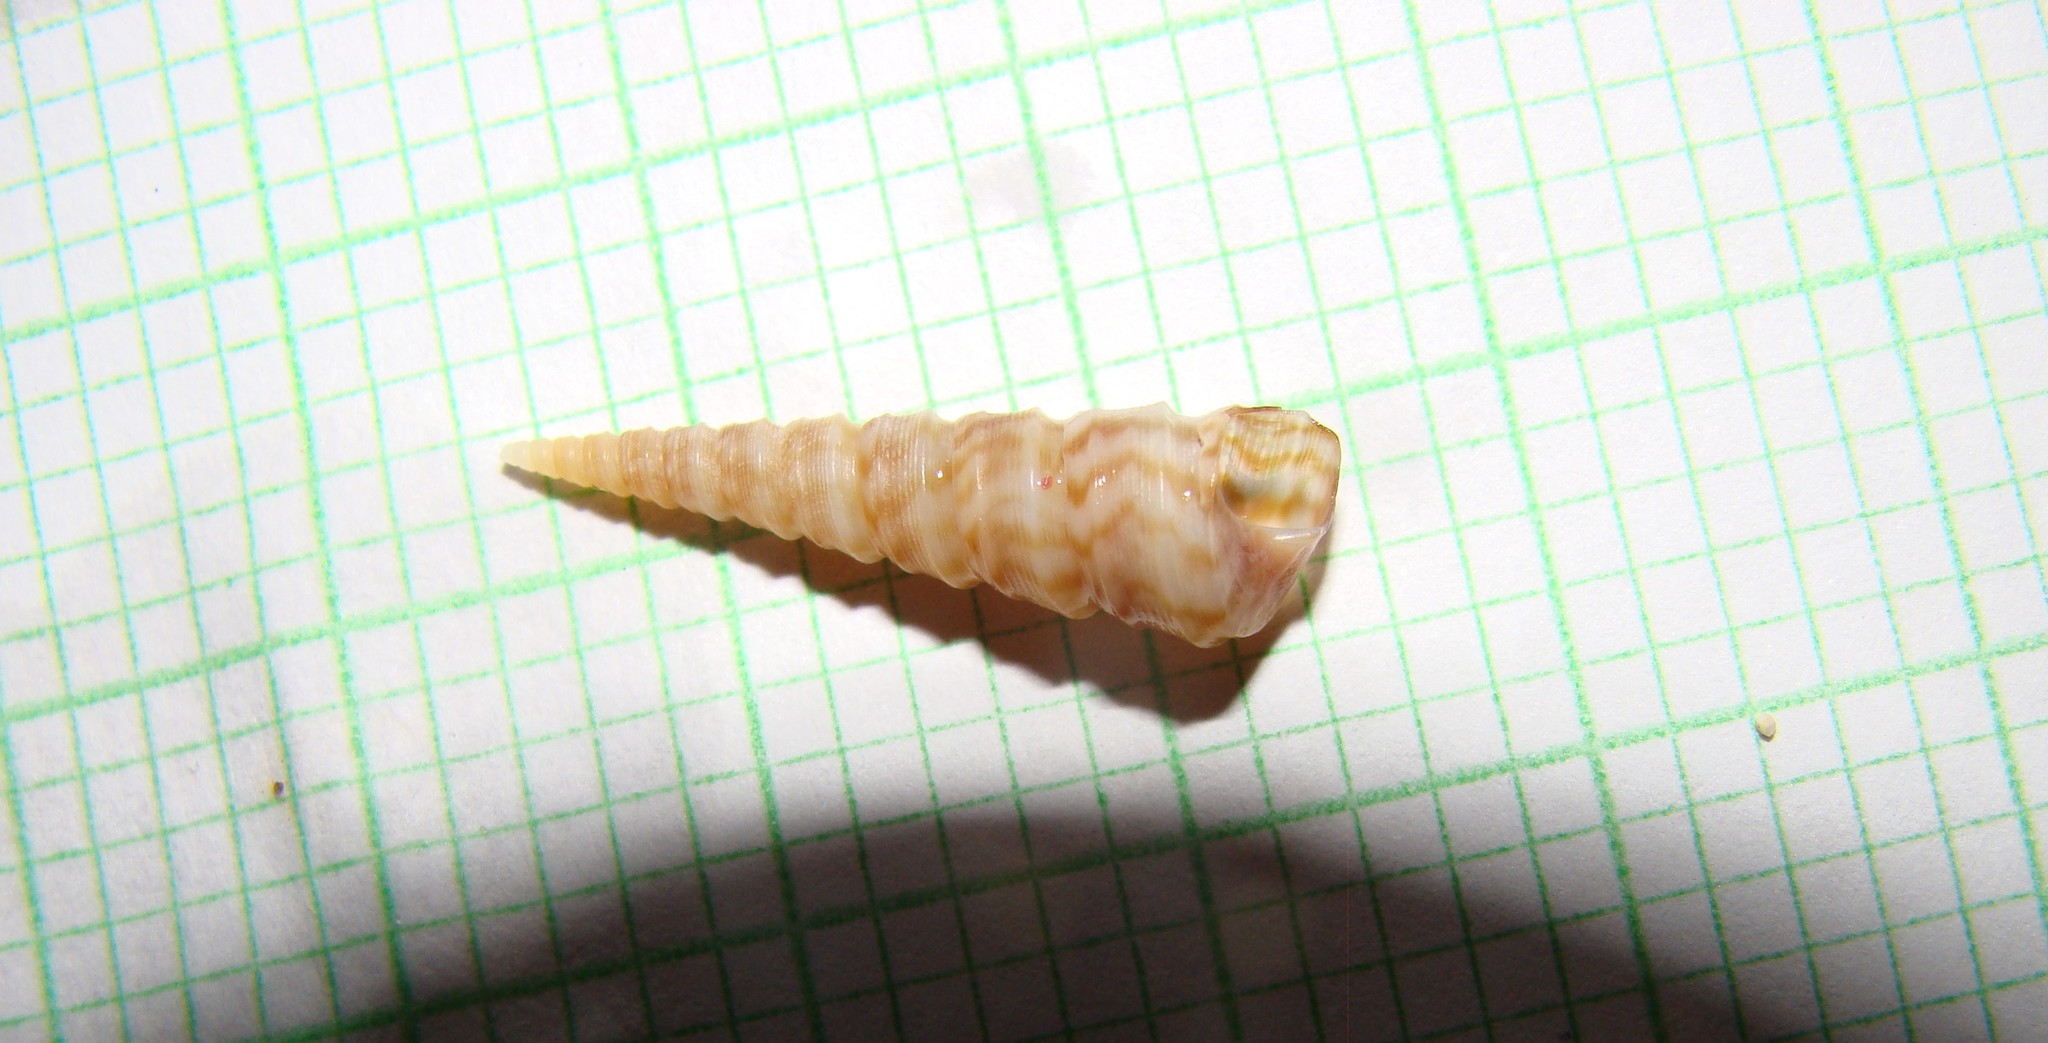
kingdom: Animalia
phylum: Mollusca
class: Gastropoda
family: Turritellidae
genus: Stiracolpus
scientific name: Stiracolpus pagoda
